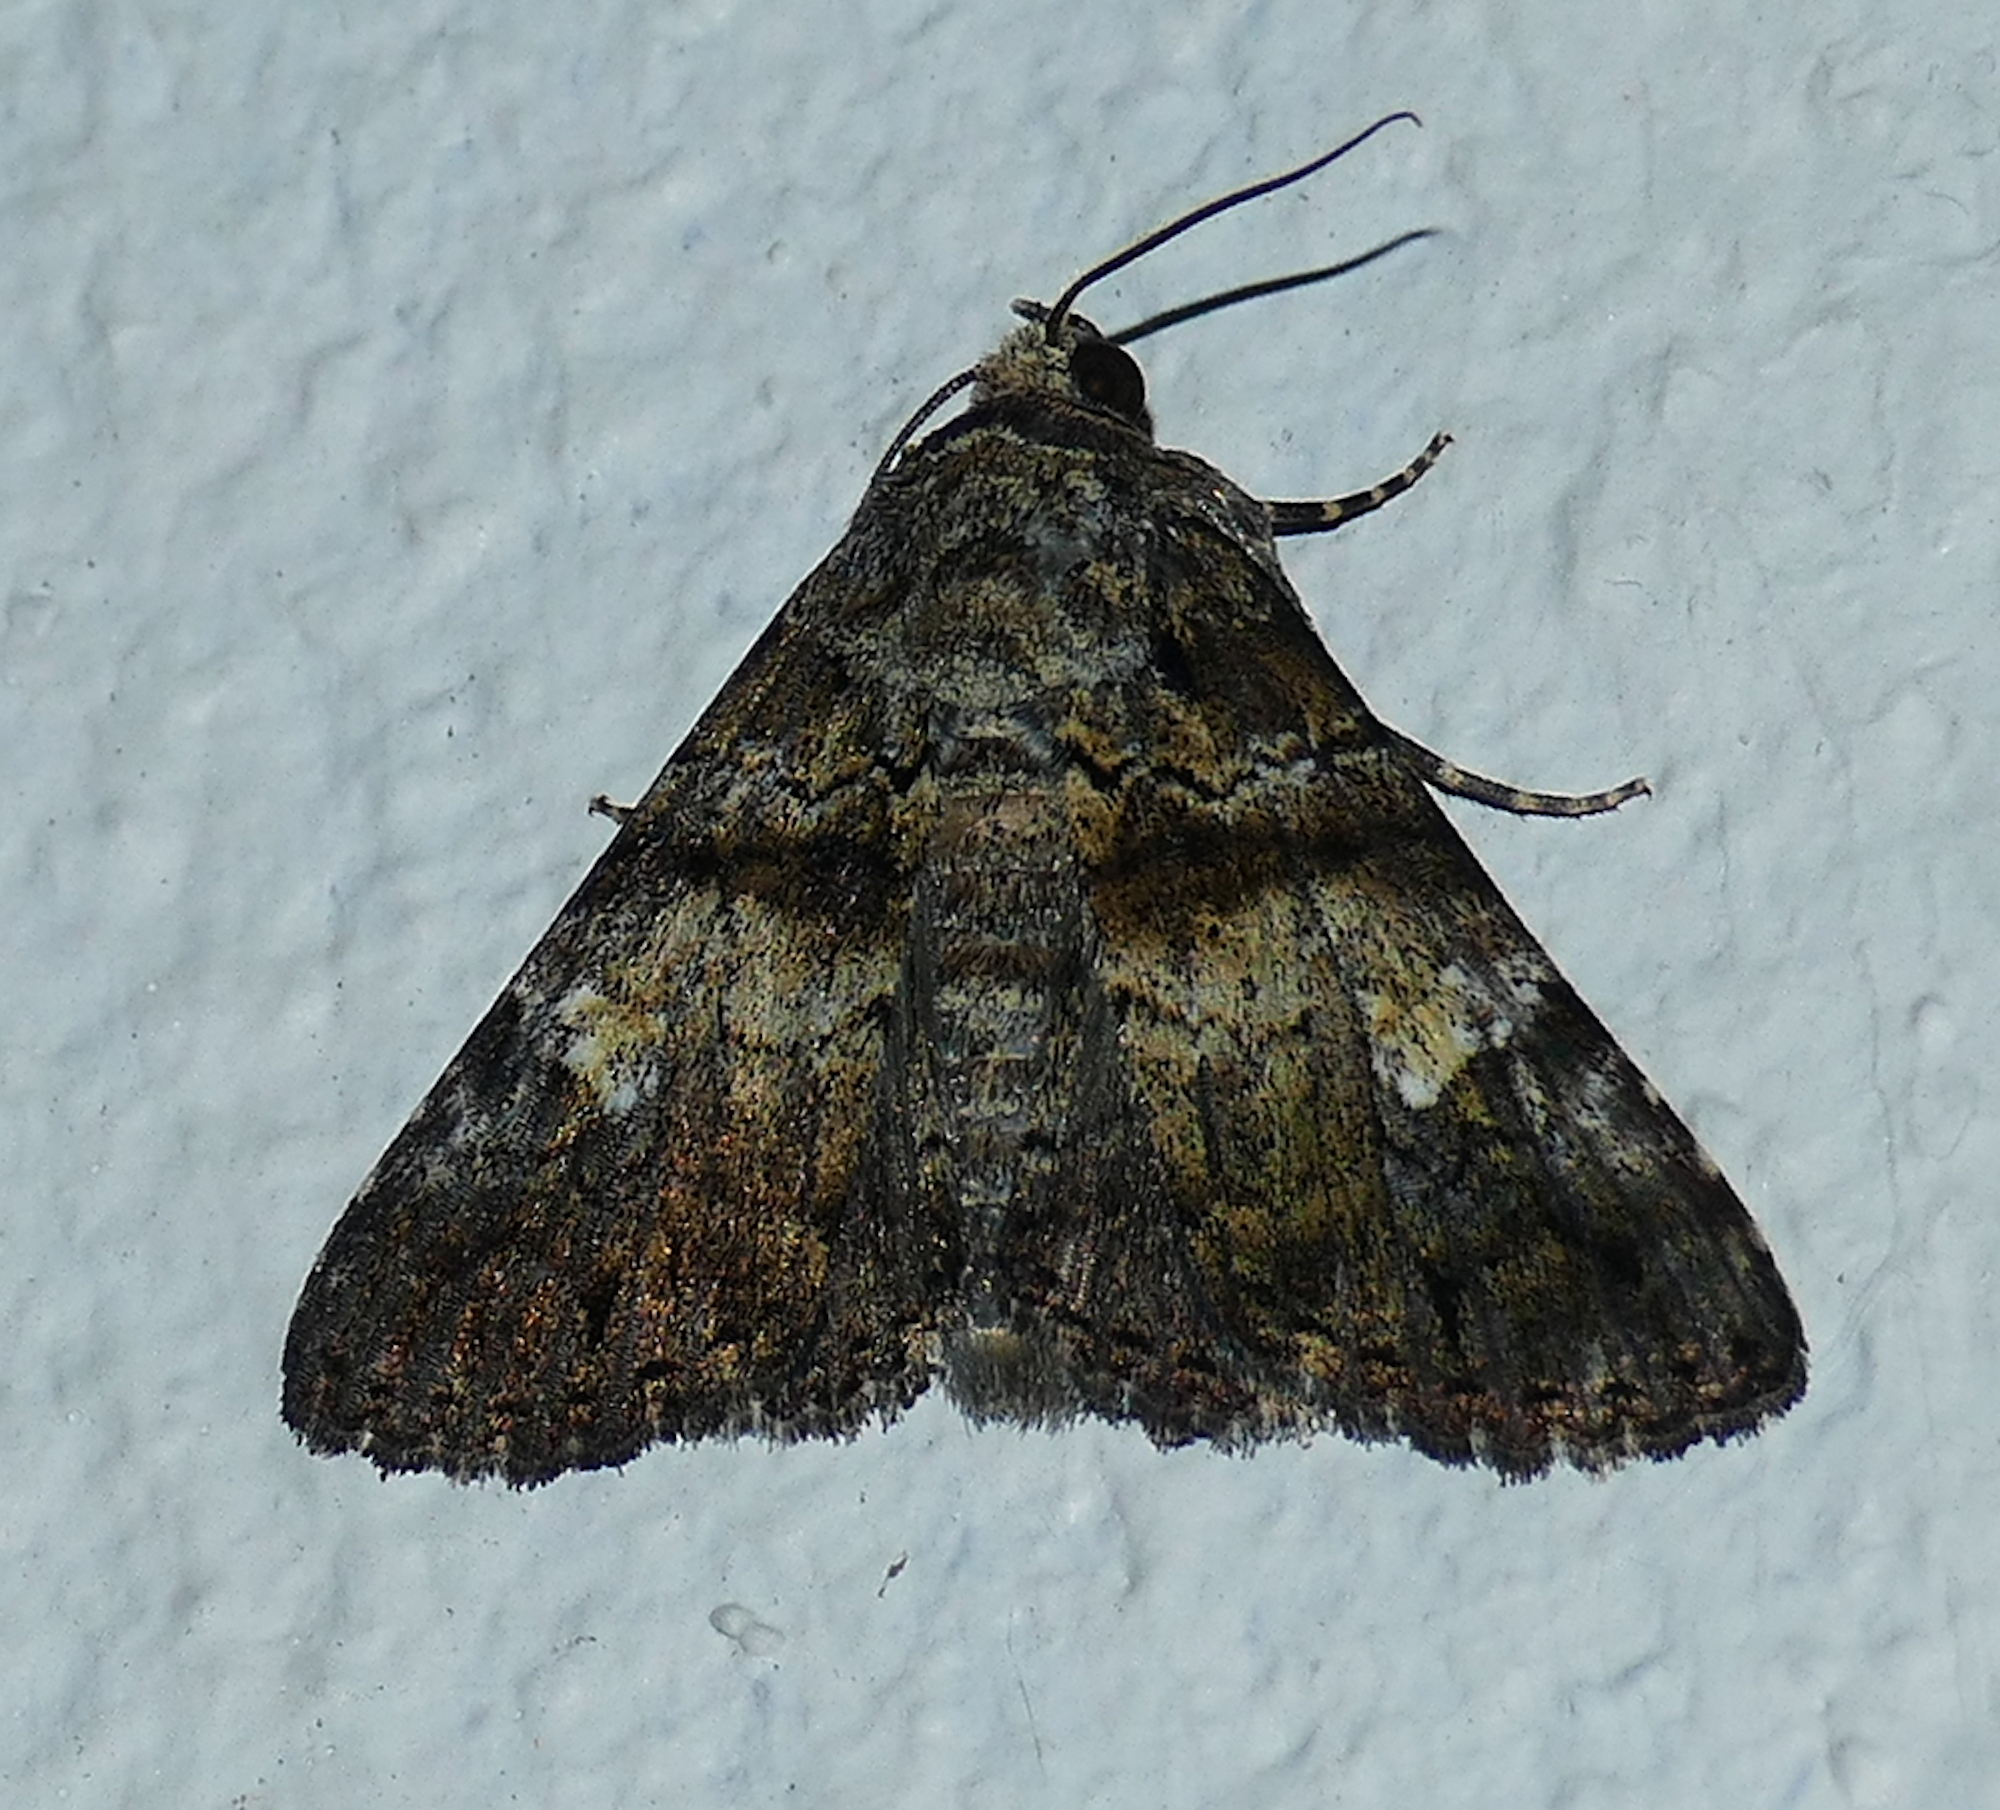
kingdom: Animalia
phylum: Arthropoda
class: Insecta
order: Lepidoptera
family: Erebidae
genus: Metria
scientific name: Metria amella
